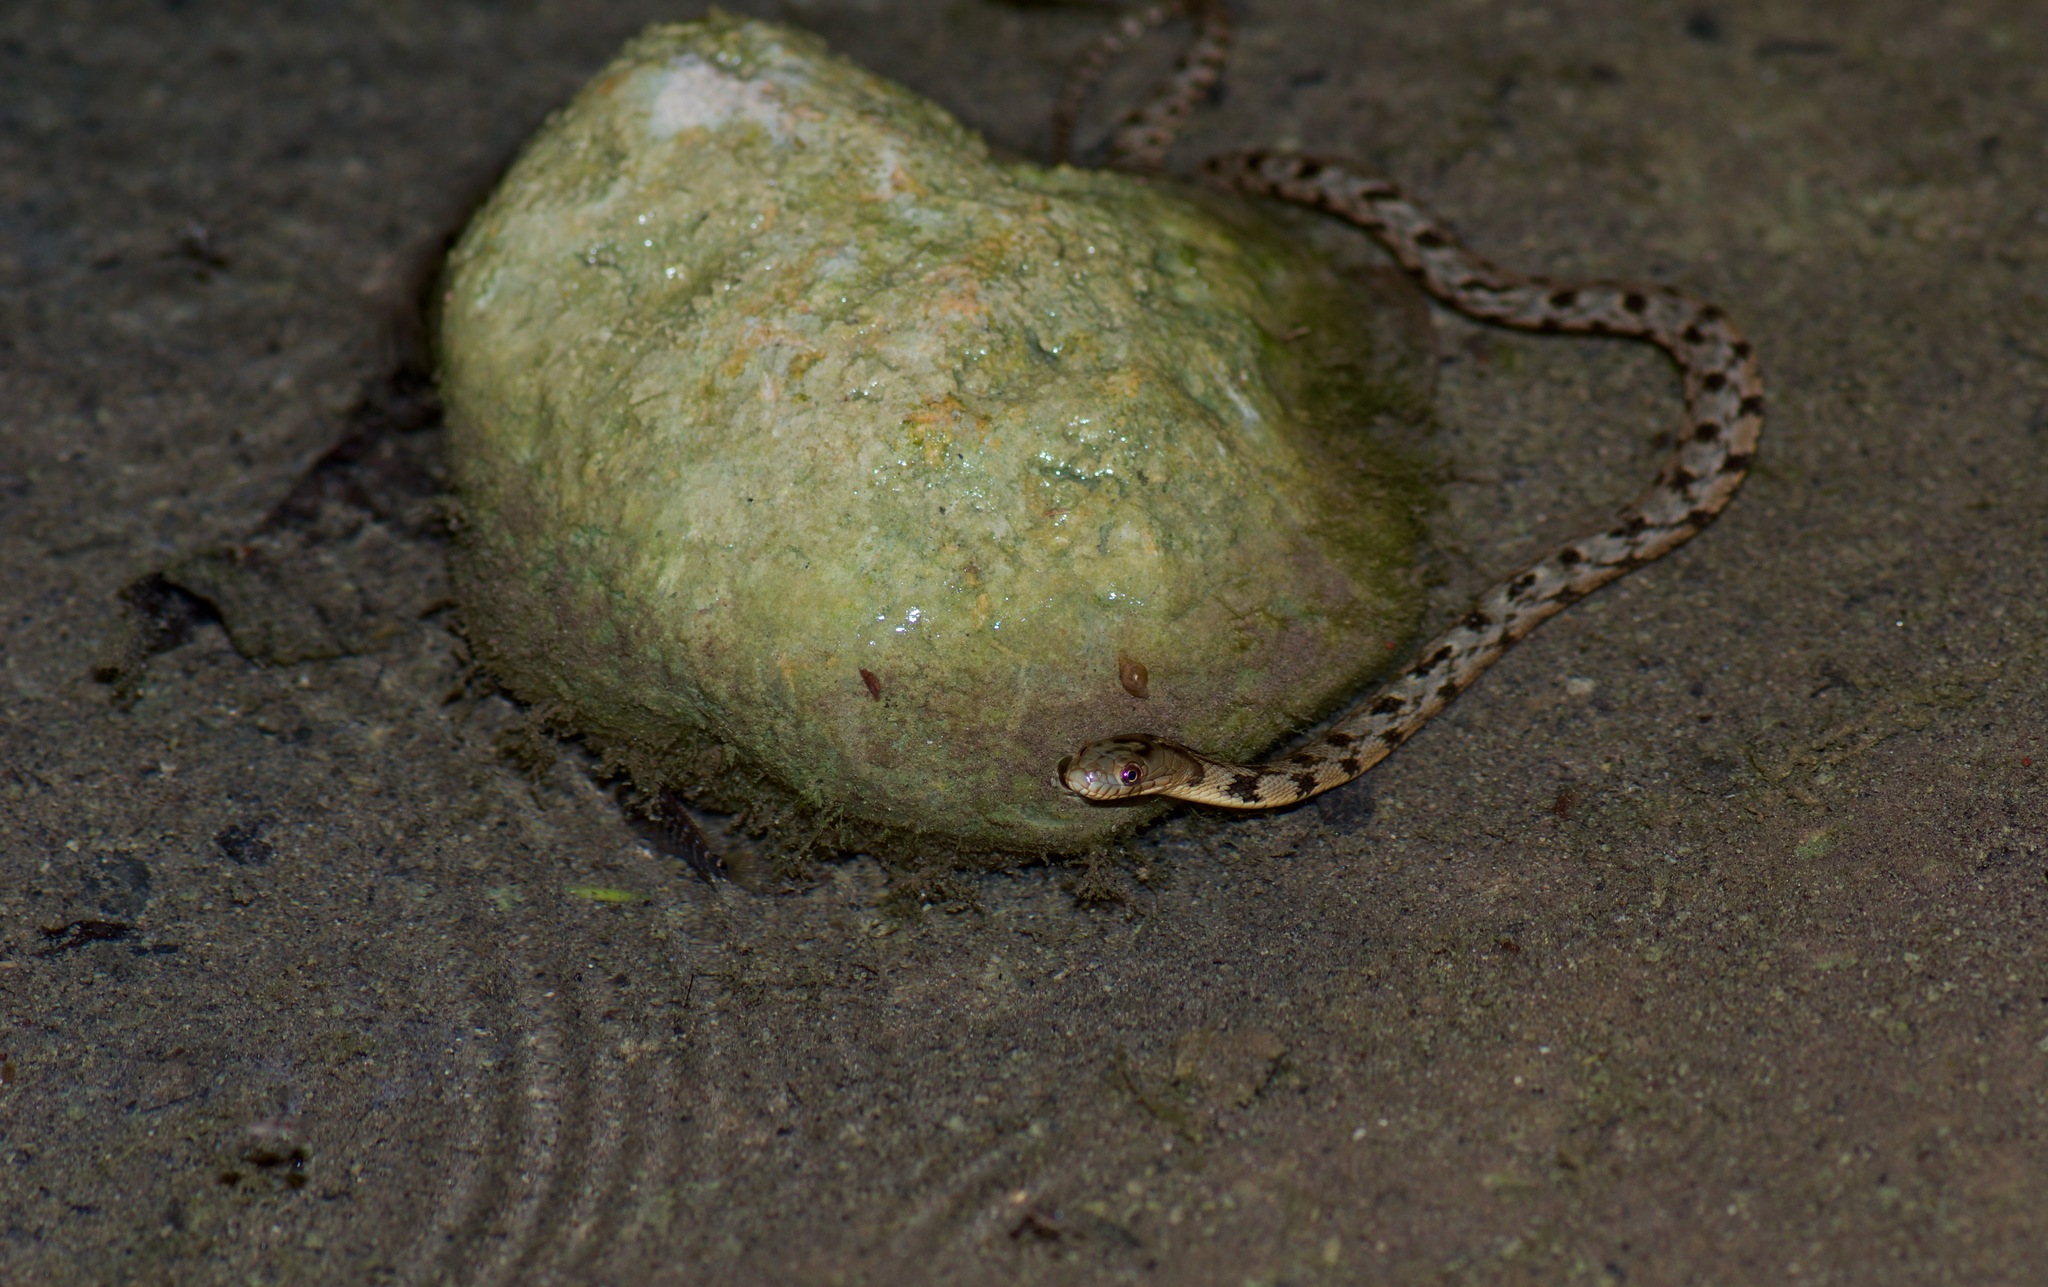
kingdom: Animalia
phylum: Chordata
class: Squamata
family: Colubridae
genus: Nerodia
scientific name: Nerodia rhombifer
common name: Diamondback water snake
